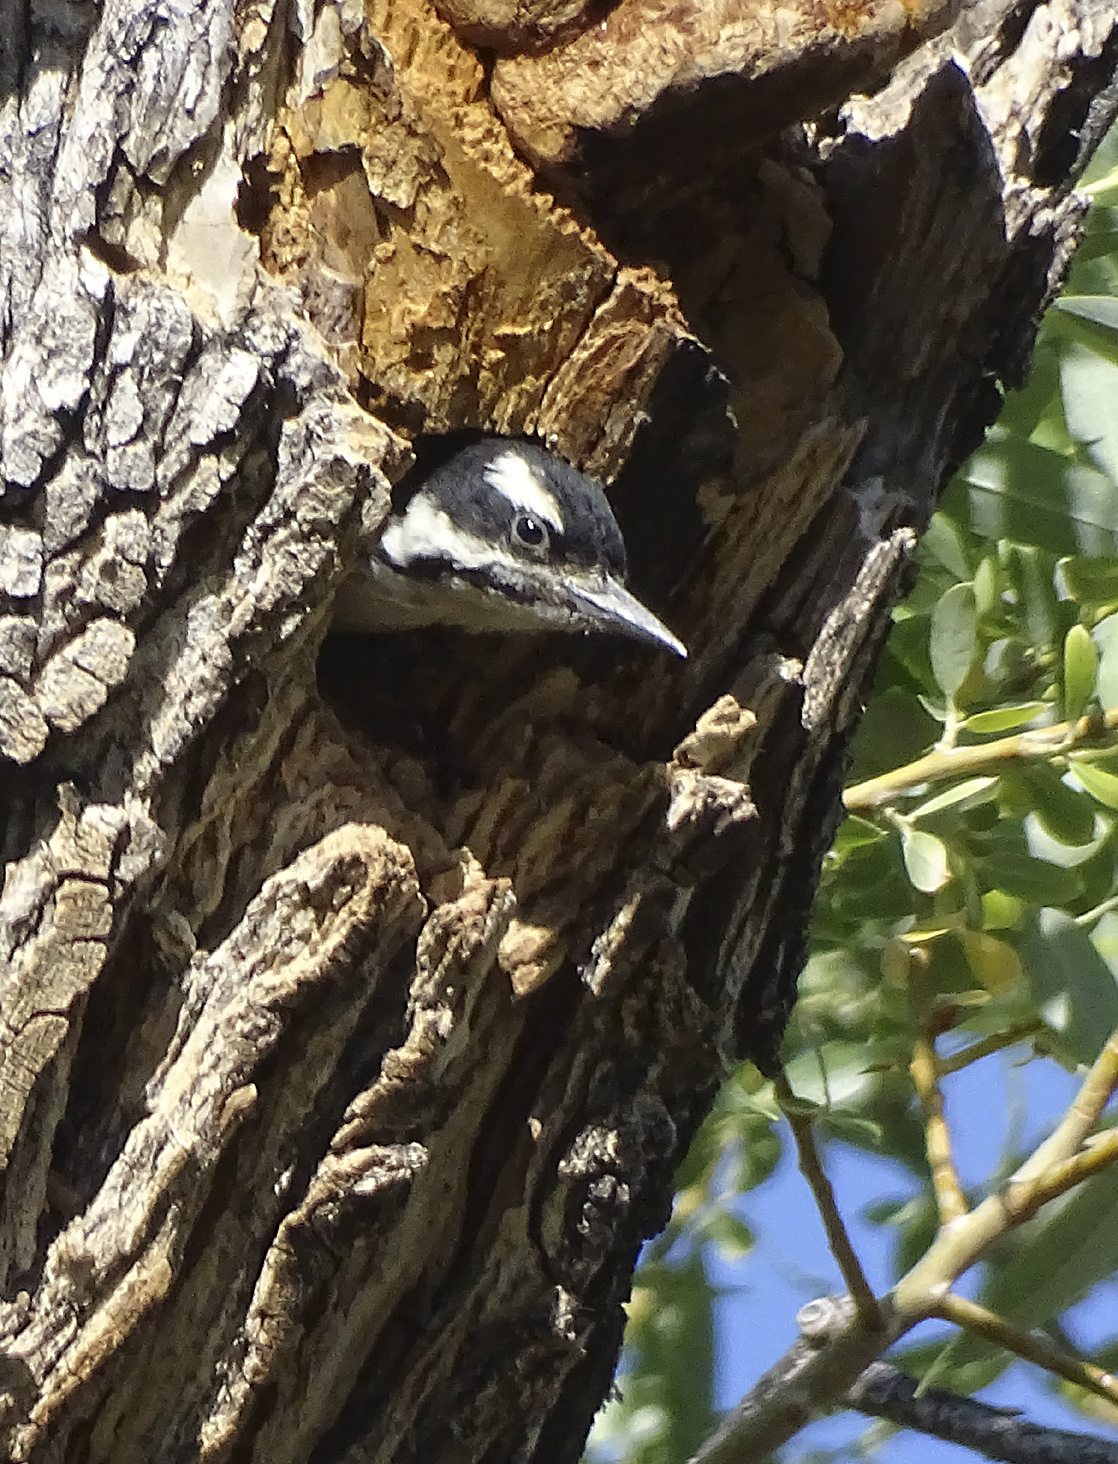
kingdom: Animalia
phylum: Chordata
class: Aves
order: Piciformes
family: Picidae
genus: Leuconotopicus
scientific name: Leuconotopicus villosus
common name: Hairy woodpecker
